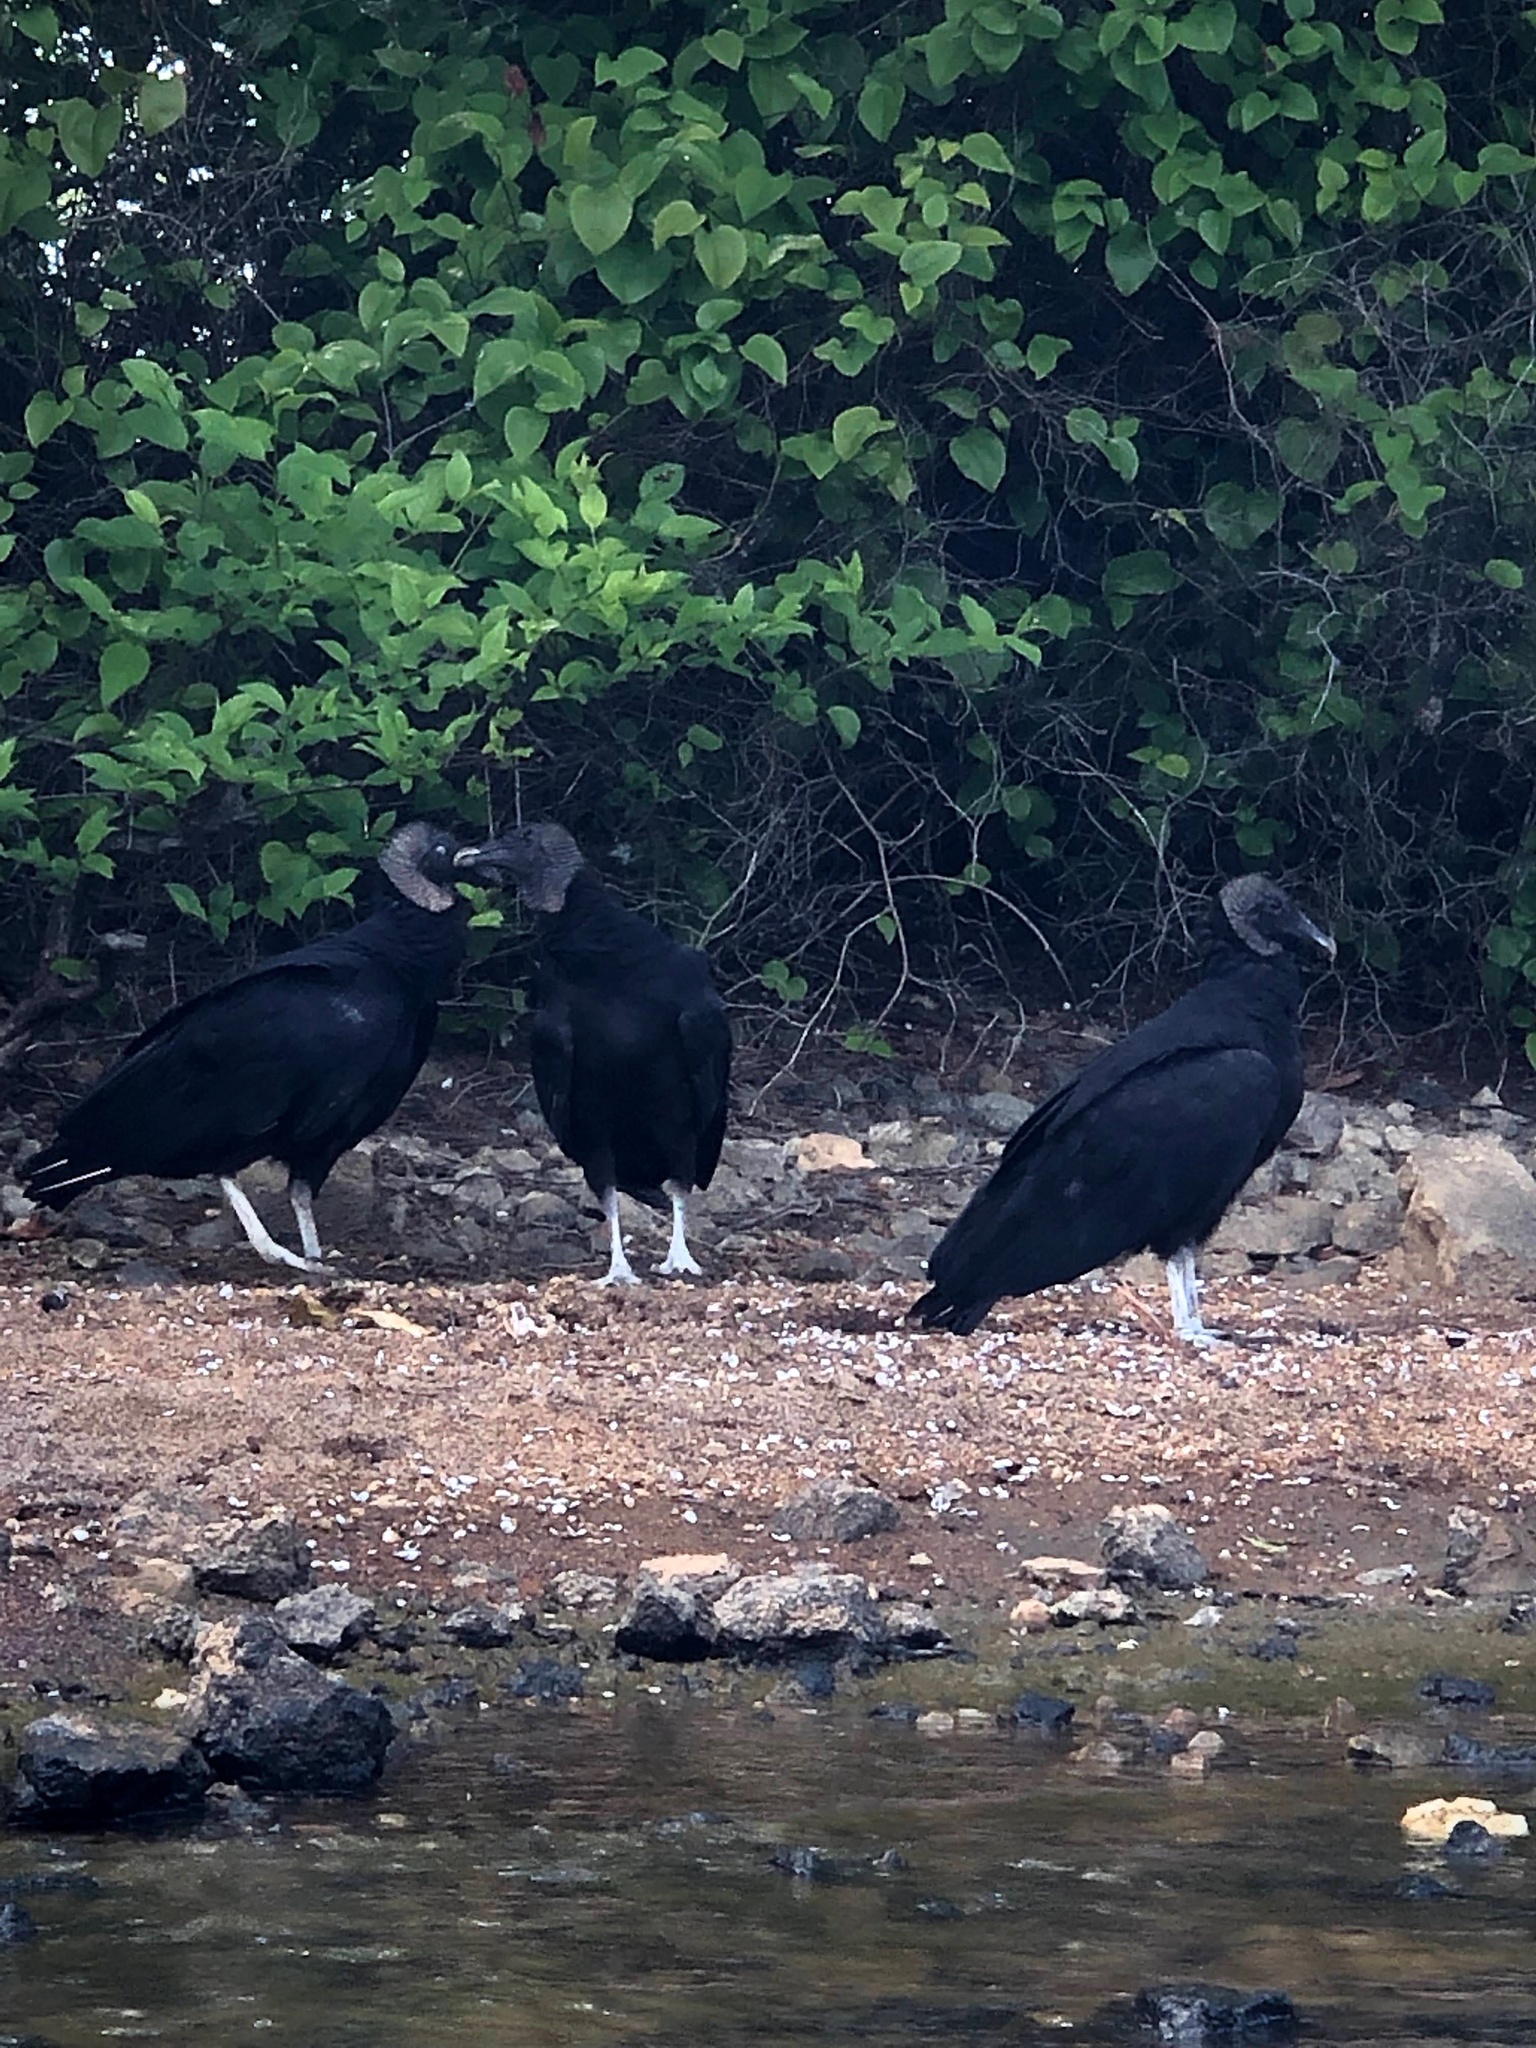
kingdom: Animalia
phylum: Chordata
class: Aves
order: Accipitriformes
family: Cathartidae
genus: Coragyps
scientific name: Coragyps atratus
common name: Black vulture
